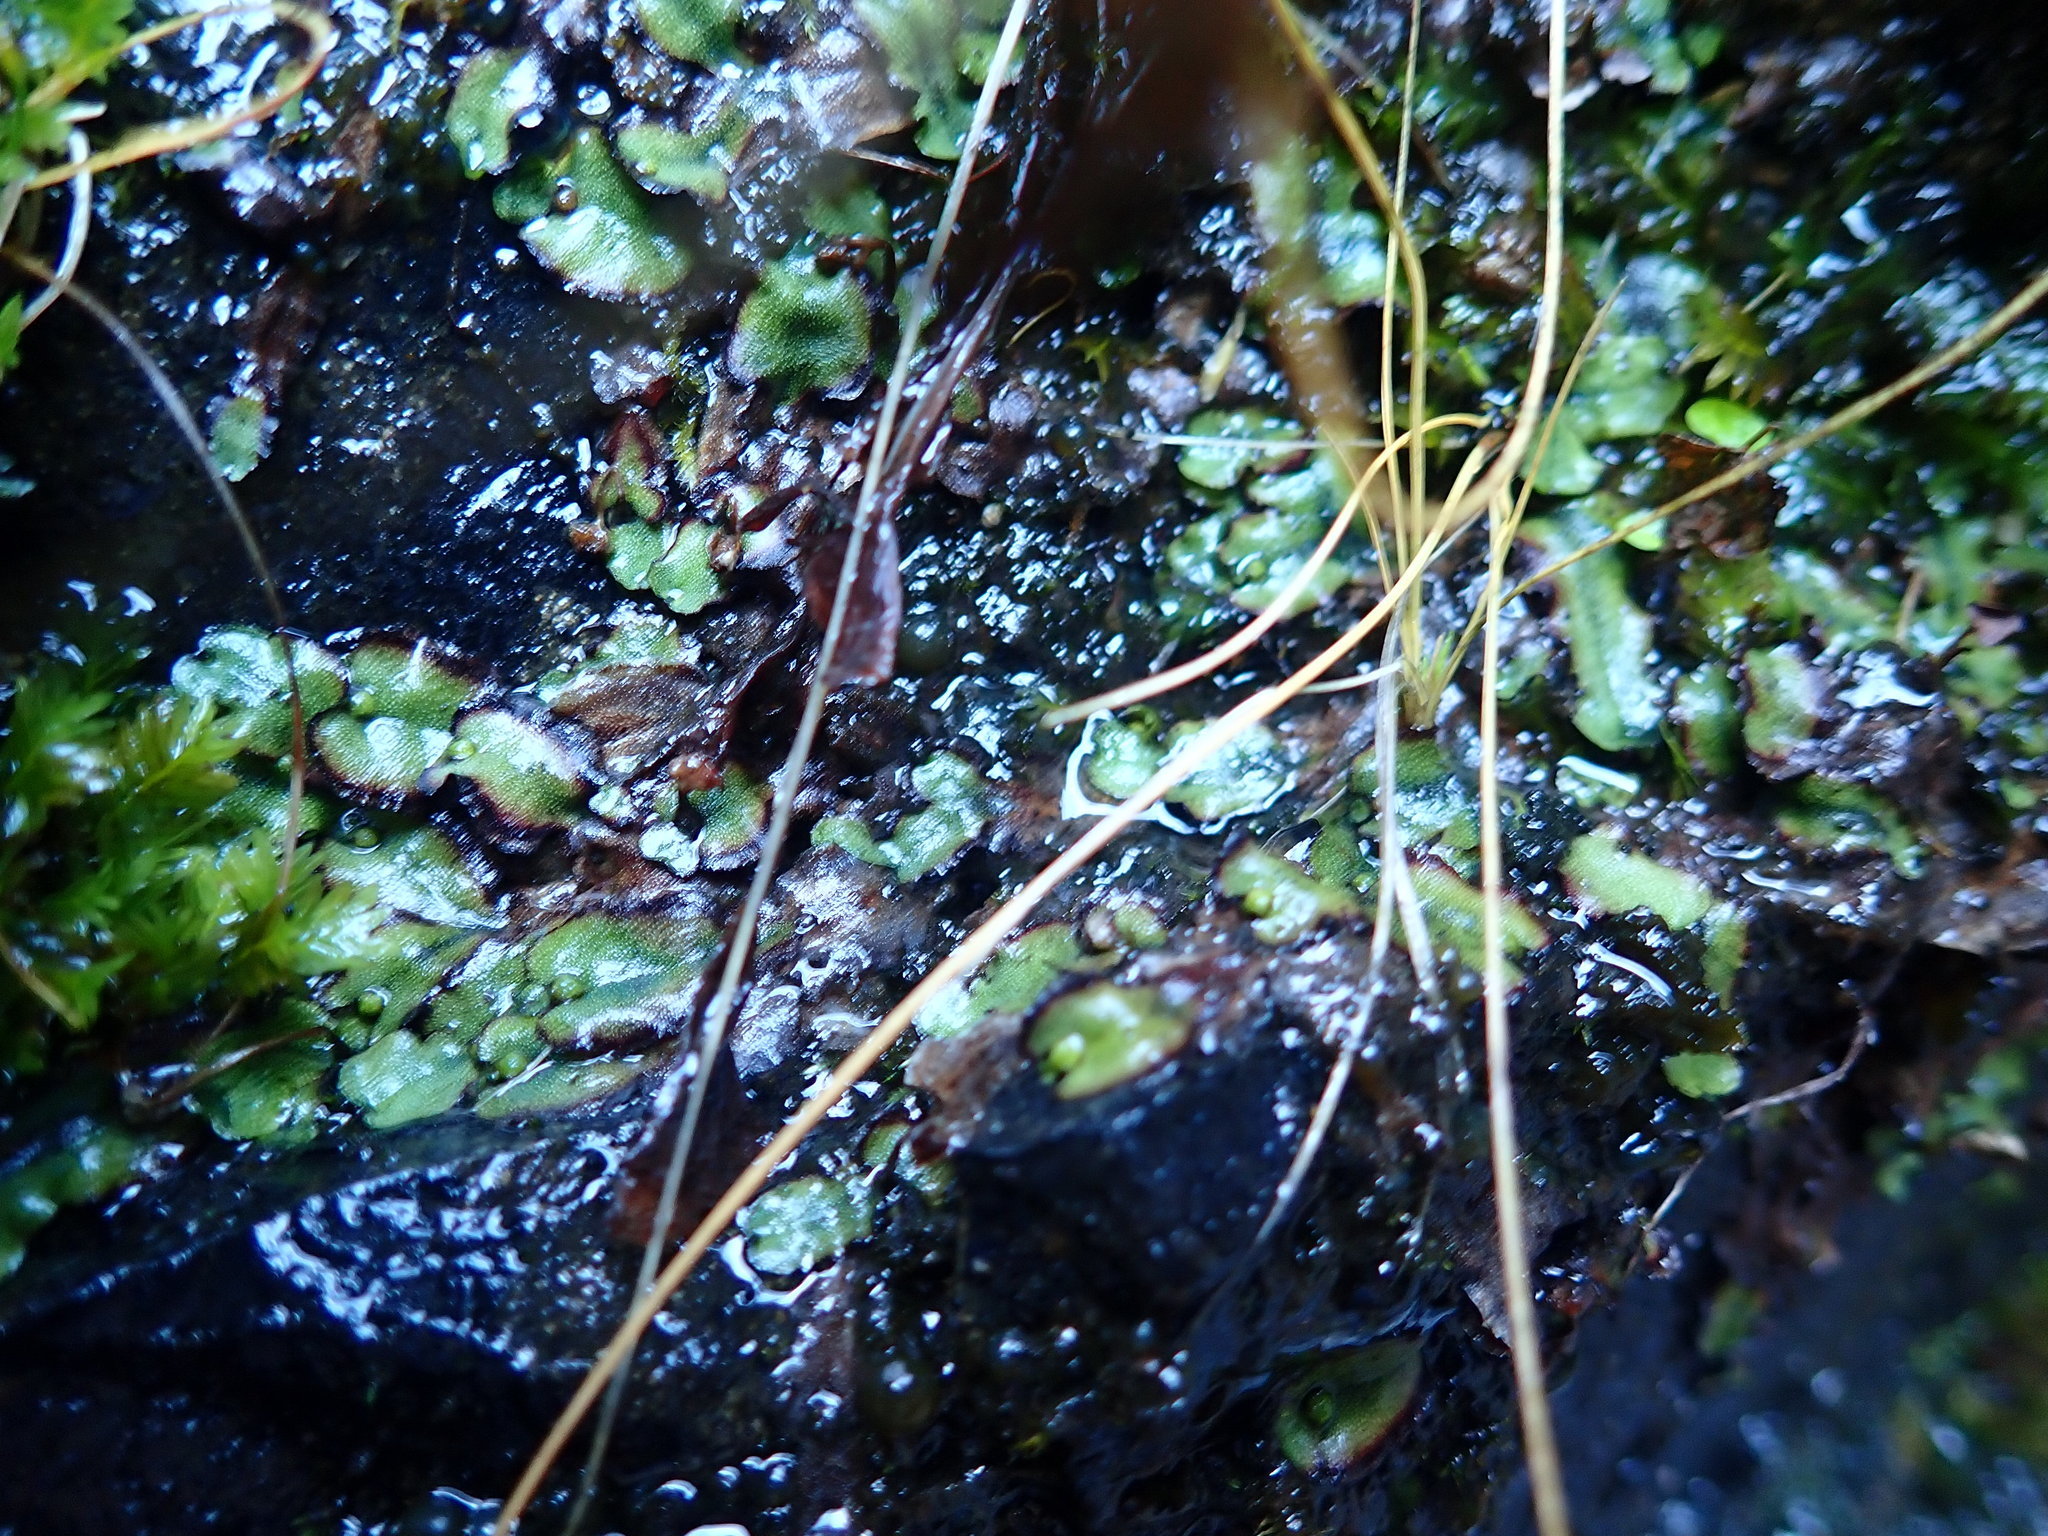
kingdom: Plantae
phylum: Marchantiophyta
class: Marchantiopsida
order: Marchantiales
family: Marchantiaceae
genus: Marchantia
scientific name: Marchantia quadrata
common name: Narrow mushroom-headed liverwort
